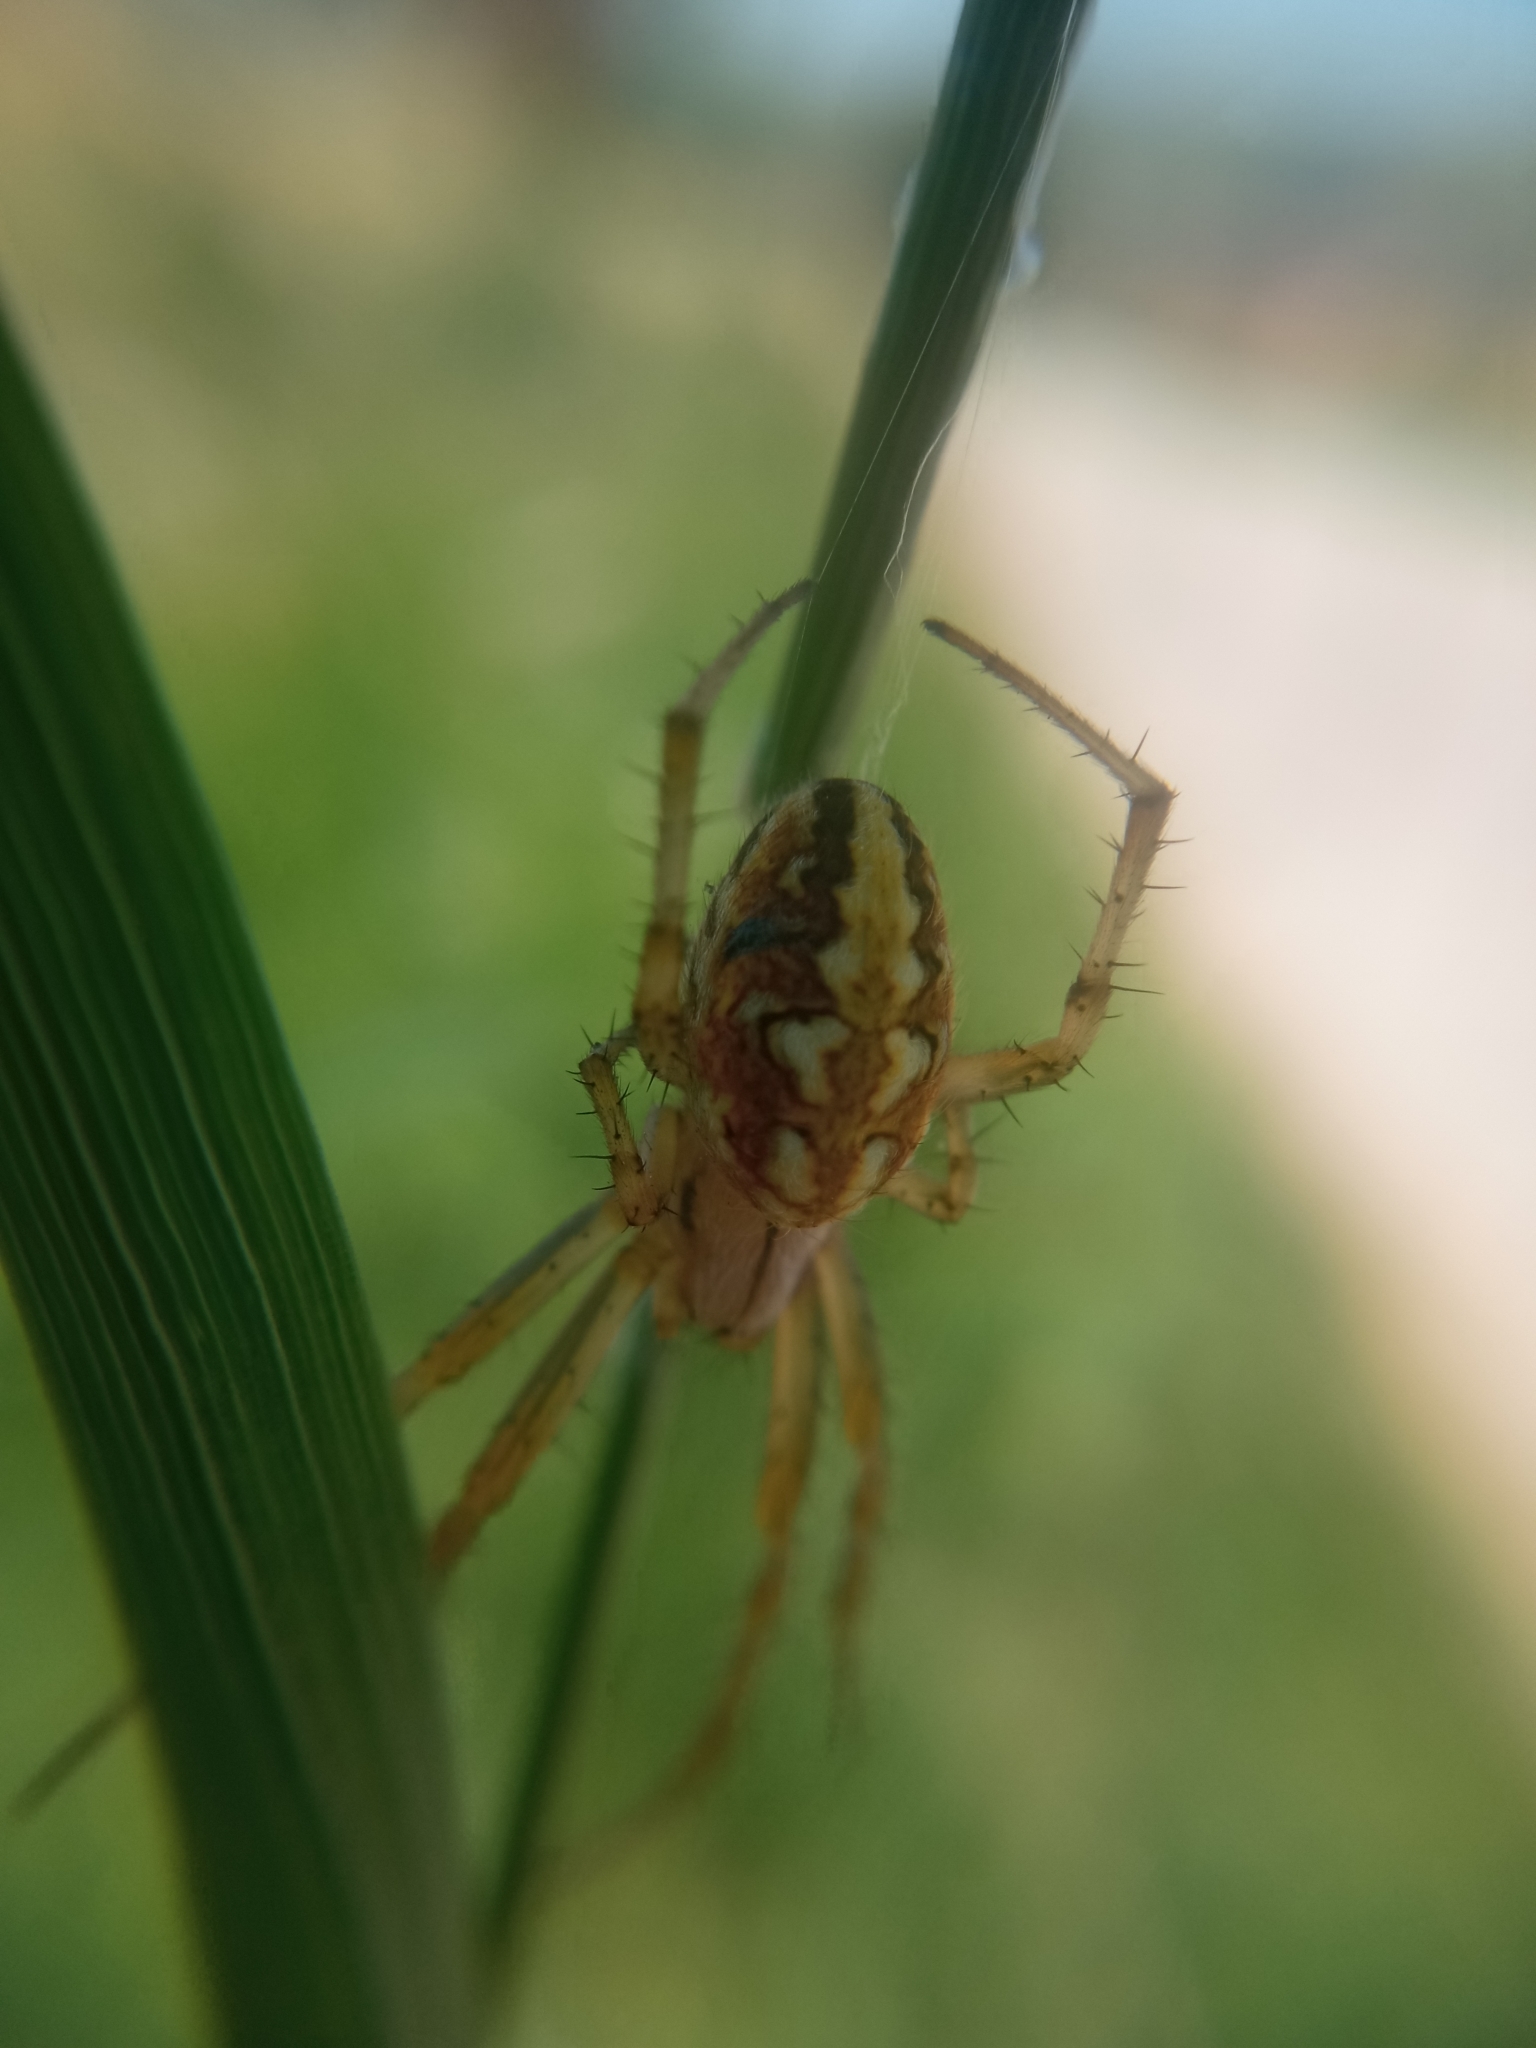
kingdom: Animalia
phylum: Arthropoda
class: Arachnida
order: Araneae
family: Araneidae
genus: Neoscona
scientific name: Neoscona adianta
